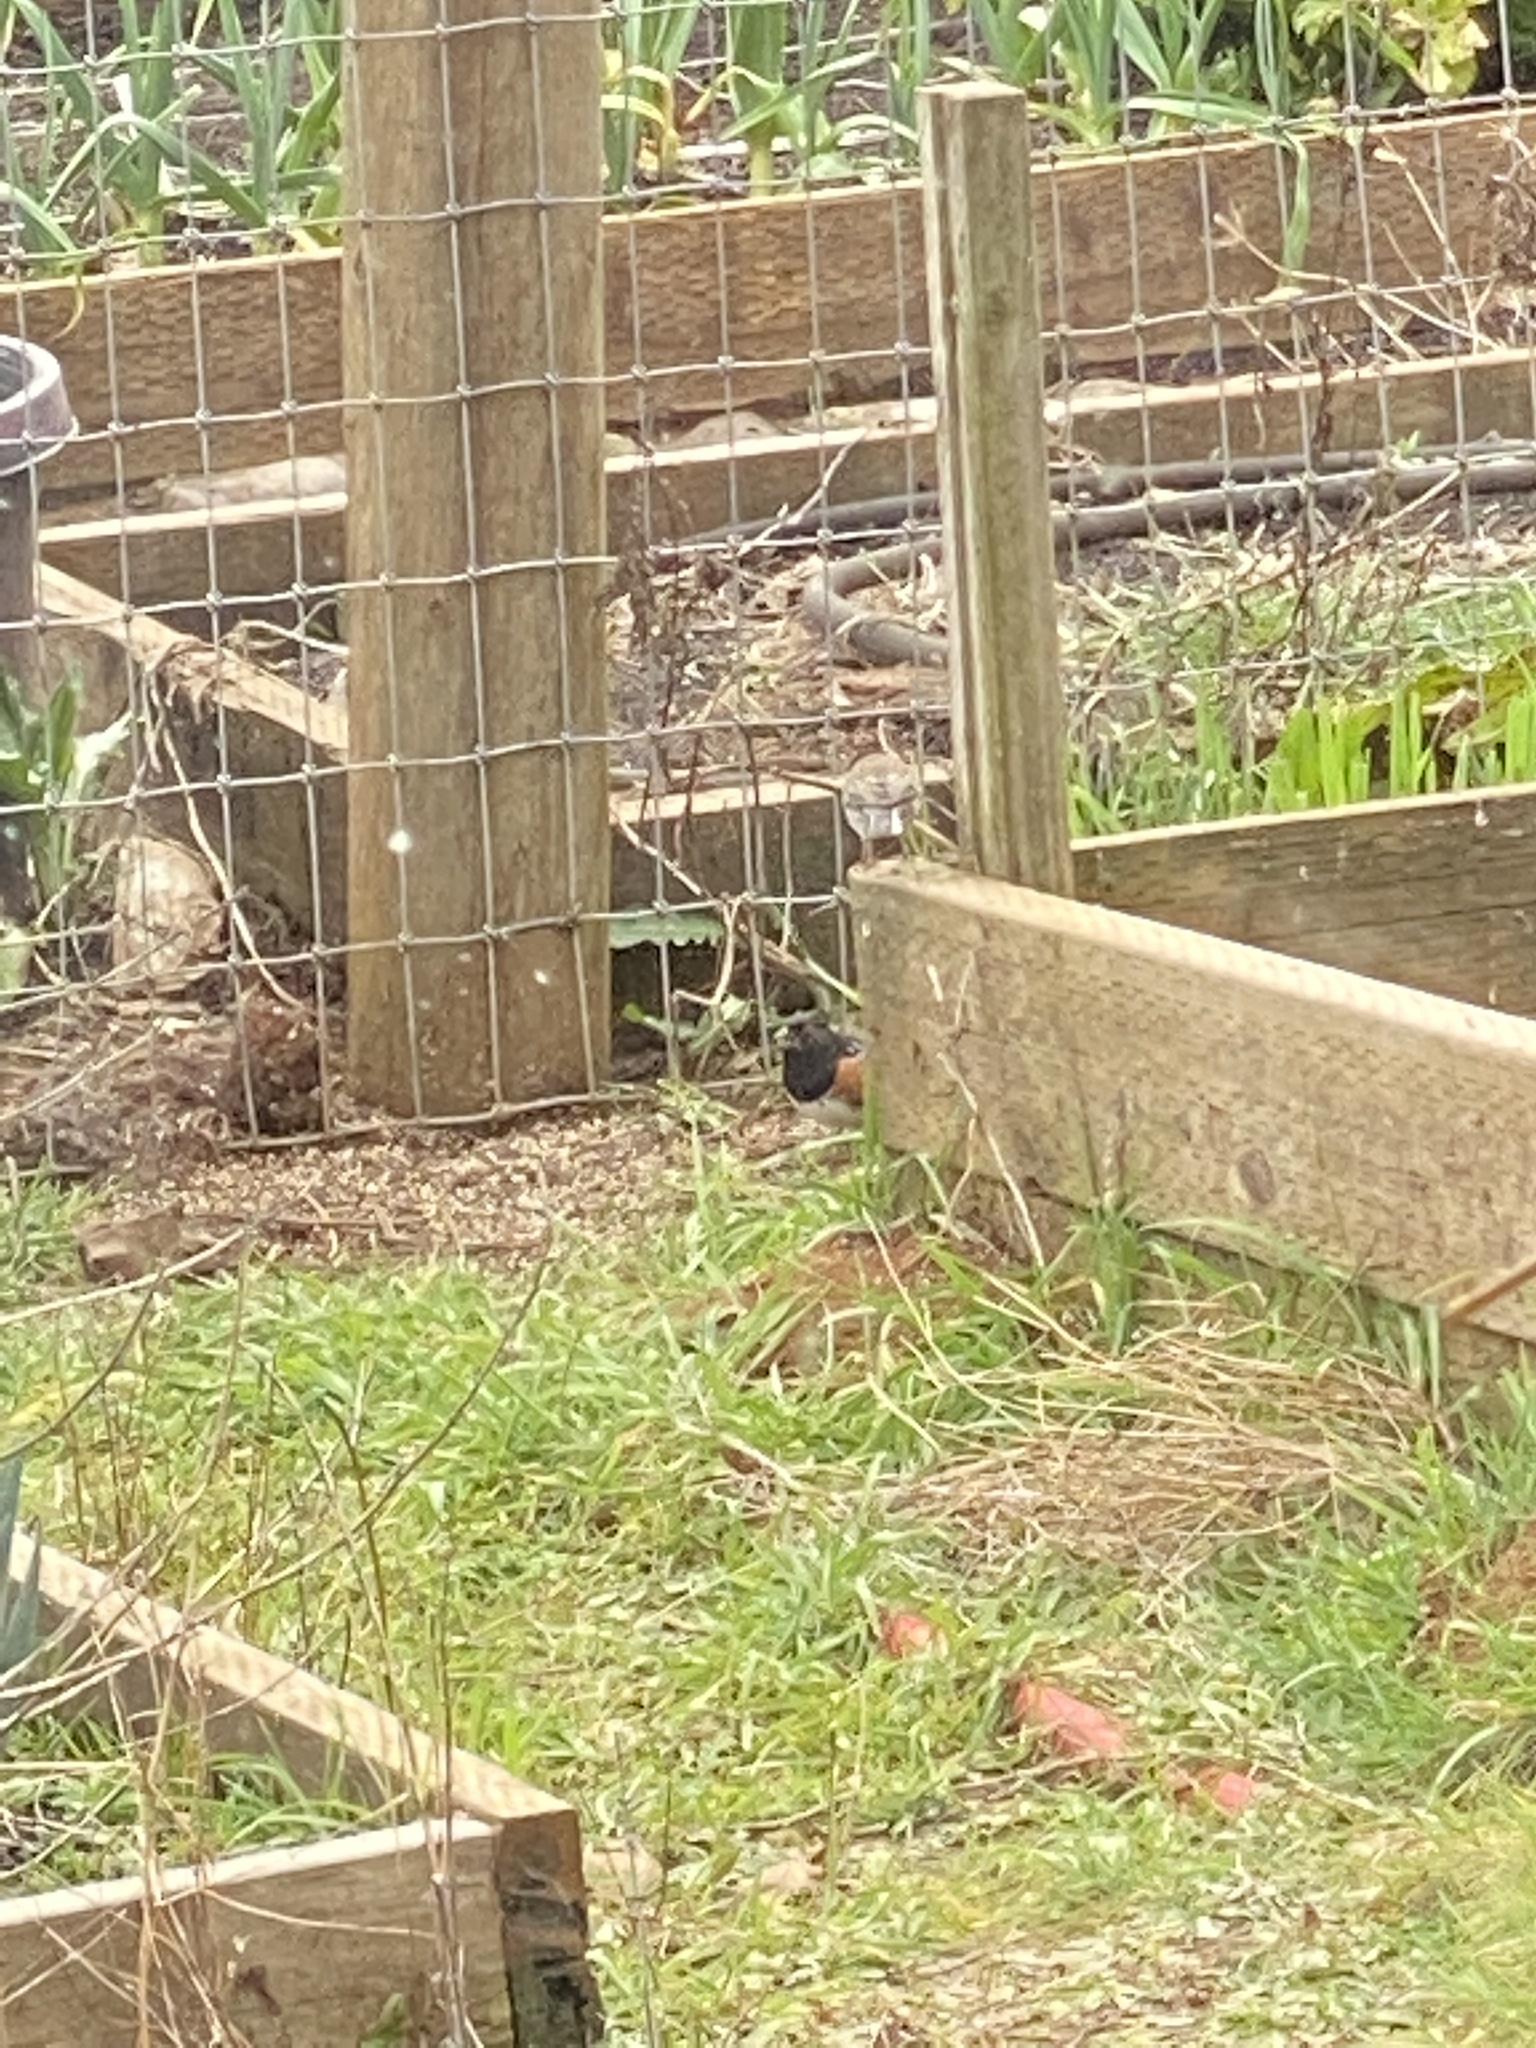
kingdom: Animalia
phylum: Chordata
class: Aves
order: Passeriformes
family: Passerellidae
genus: Pipilo
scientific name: Pipilo maculatus
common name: Spotted towhee
